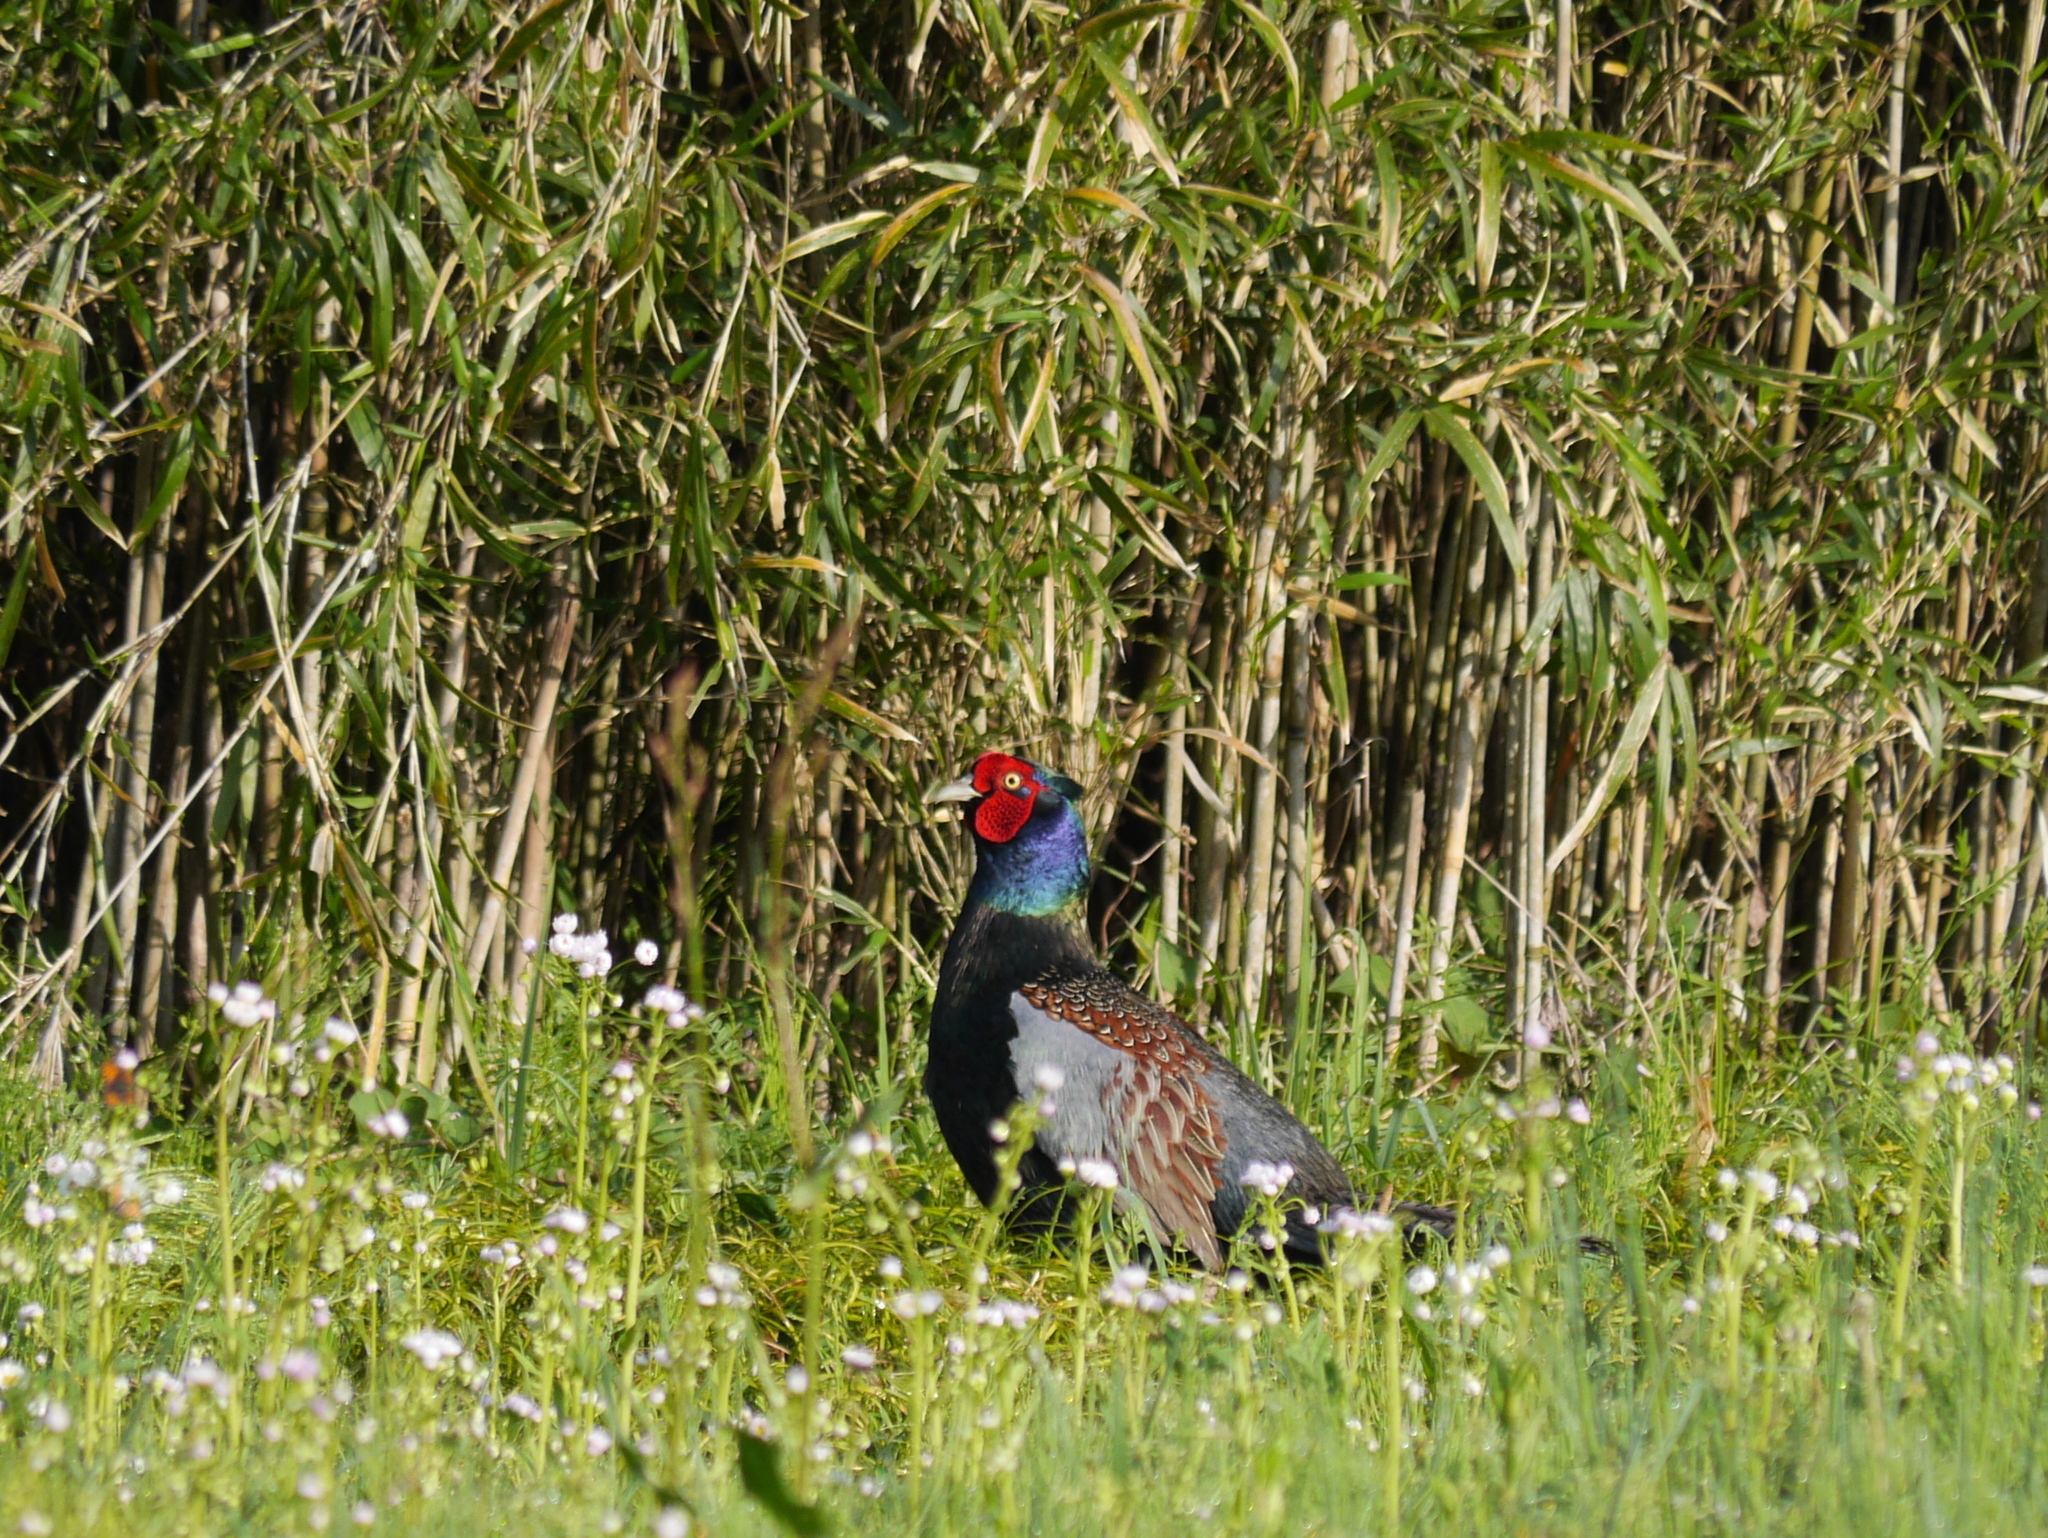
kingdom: Animalia
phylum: Chordata
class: Aves
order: Galliformes
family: Phasianidae
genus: Phasianus
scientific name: Phasianus versicolor
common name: Green pheasant
